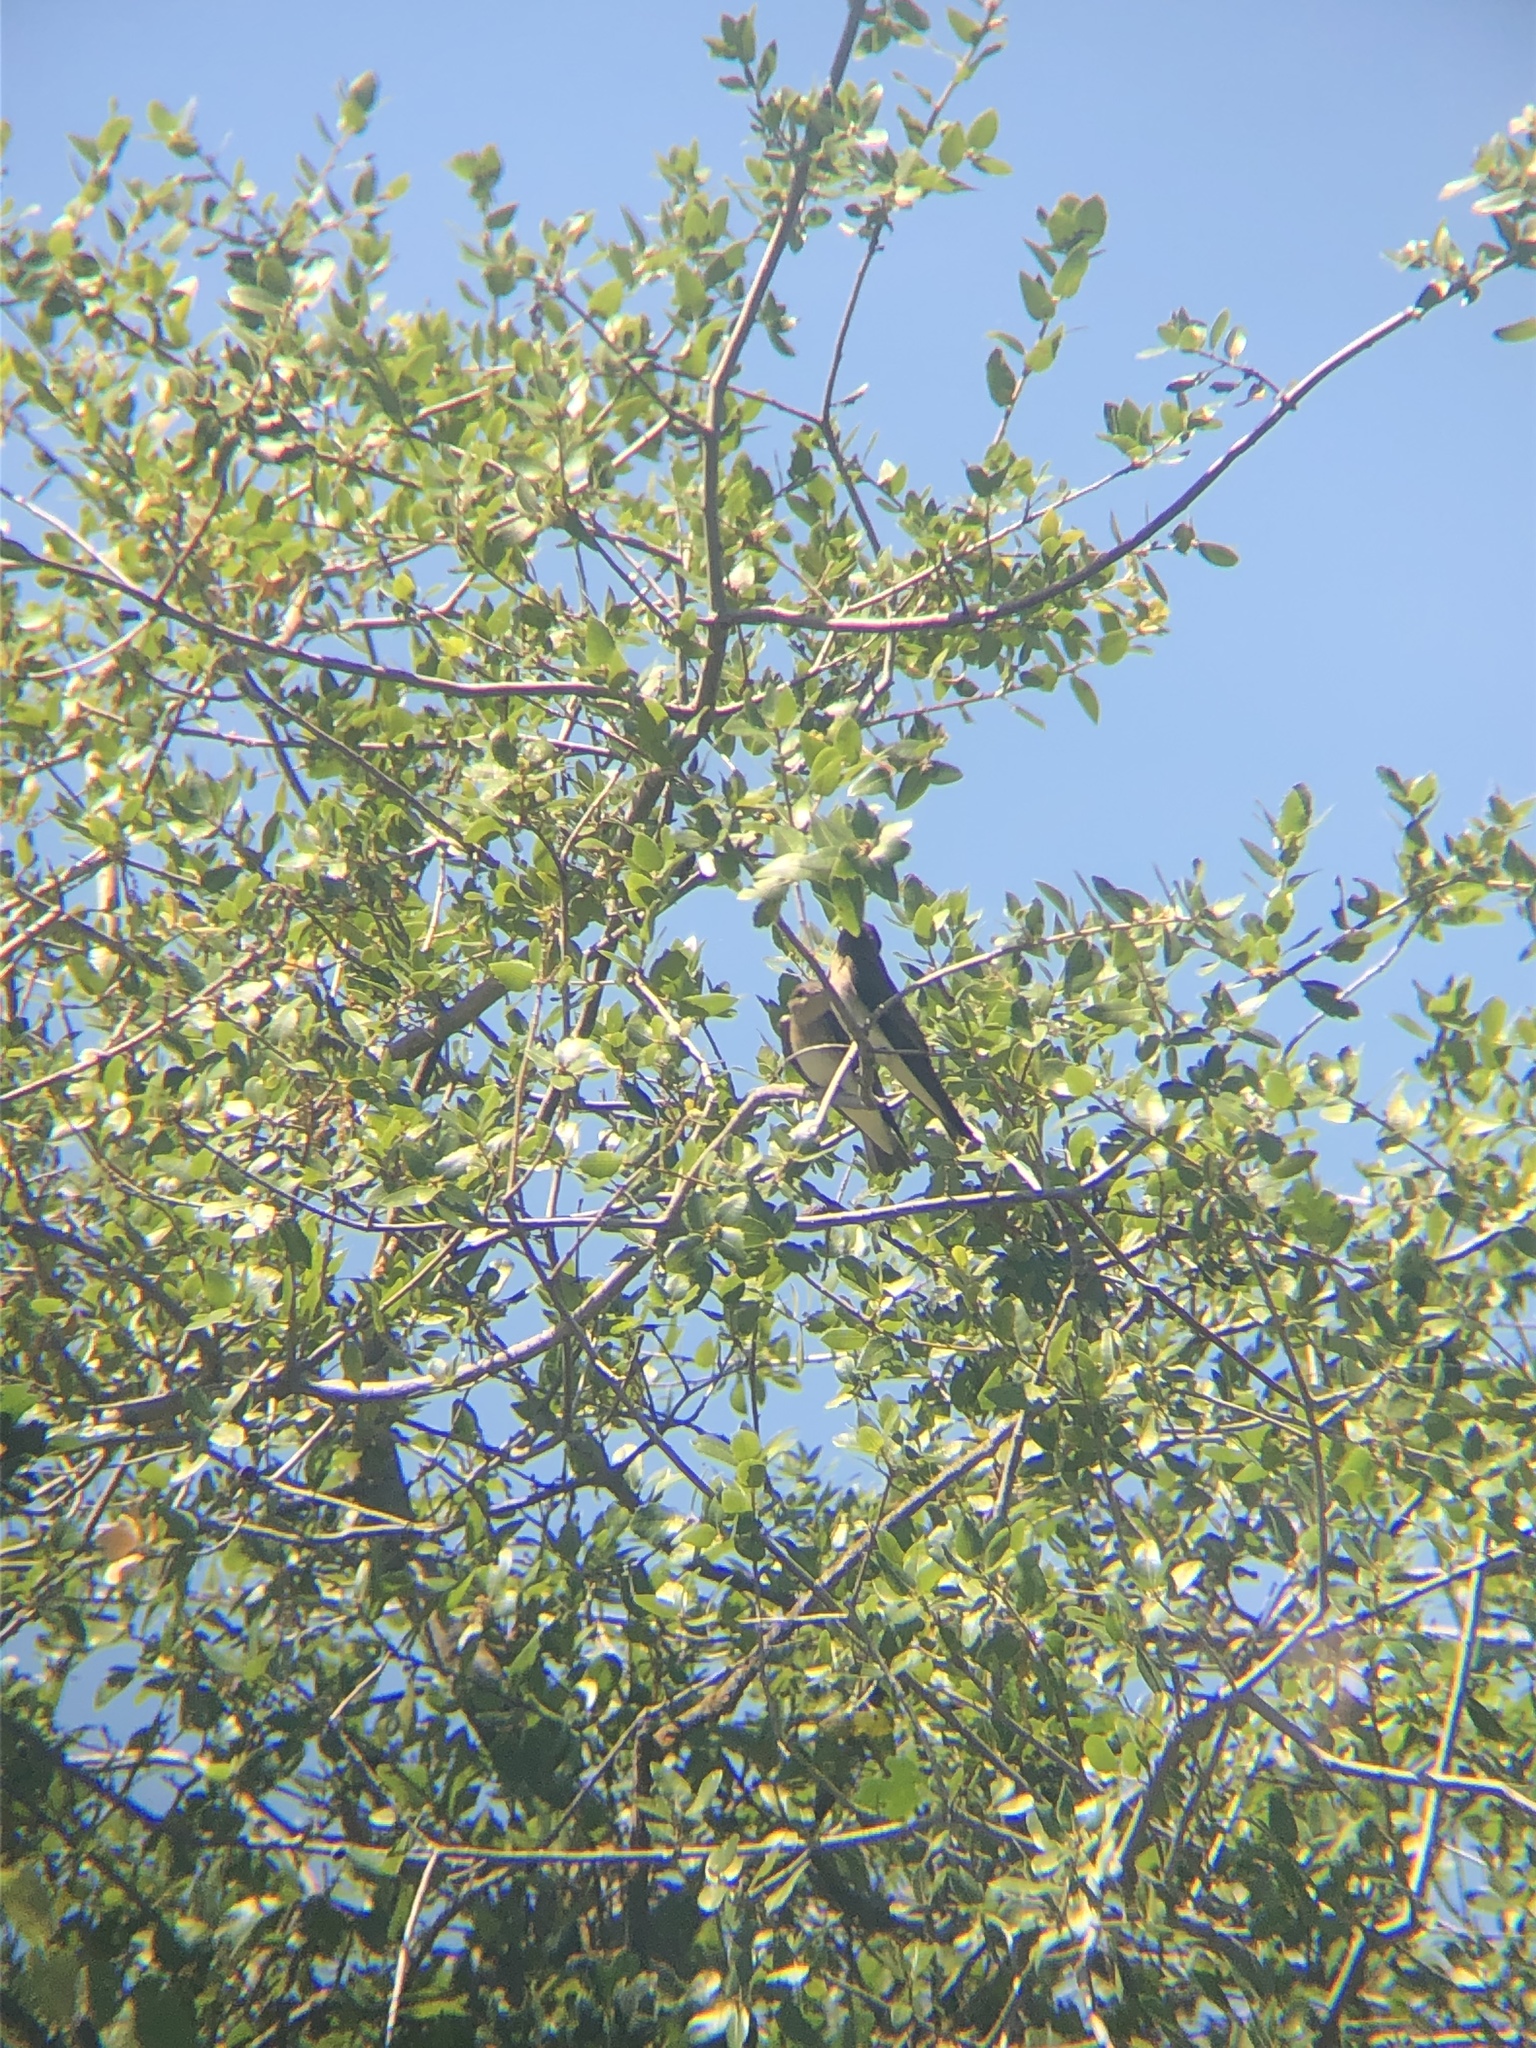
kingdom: Animalia
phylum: Chordata
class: Aves
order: Passeriformes
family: Hirundinidae
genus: Tachycineta
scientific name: Tachycineta bicolor
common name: Tree swallow
